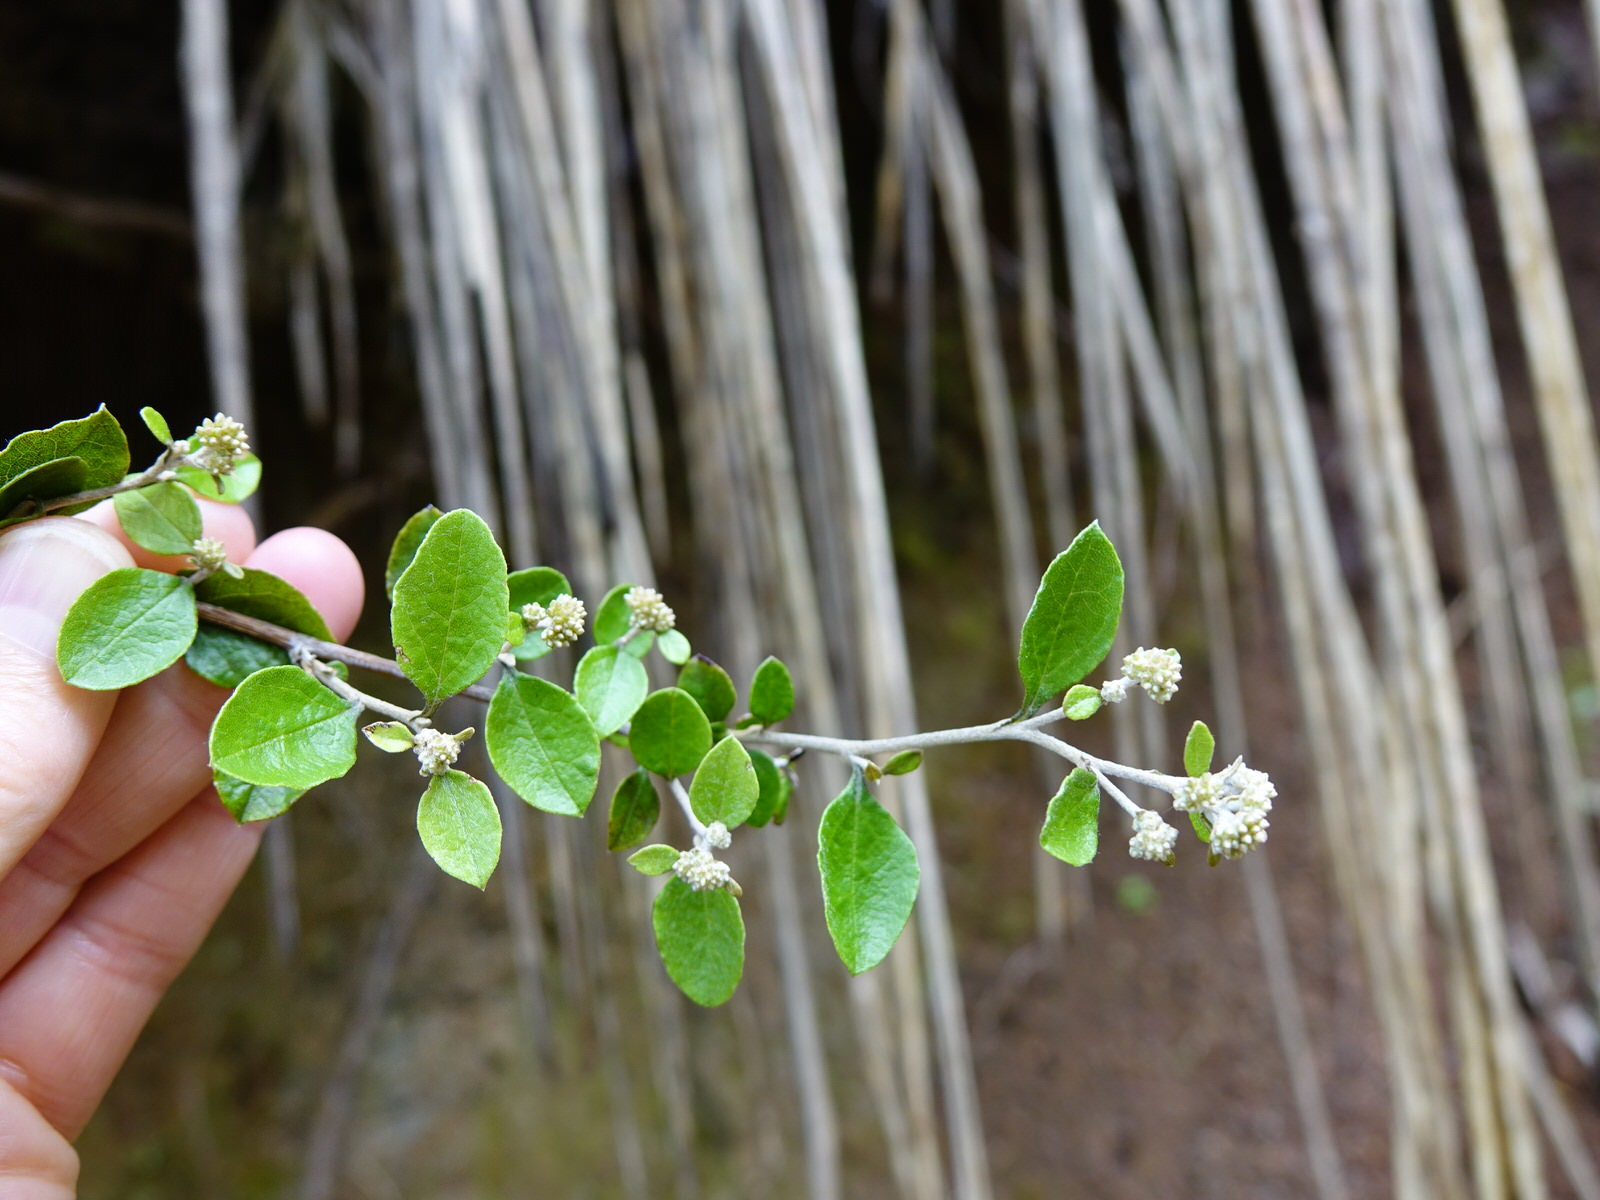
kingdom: Plantae
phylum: Tracheophyta
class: Magnoliopsida
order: Asterales
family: Asteraceae
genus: Ozothamnus
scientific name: Ozothamnus glomeratus
